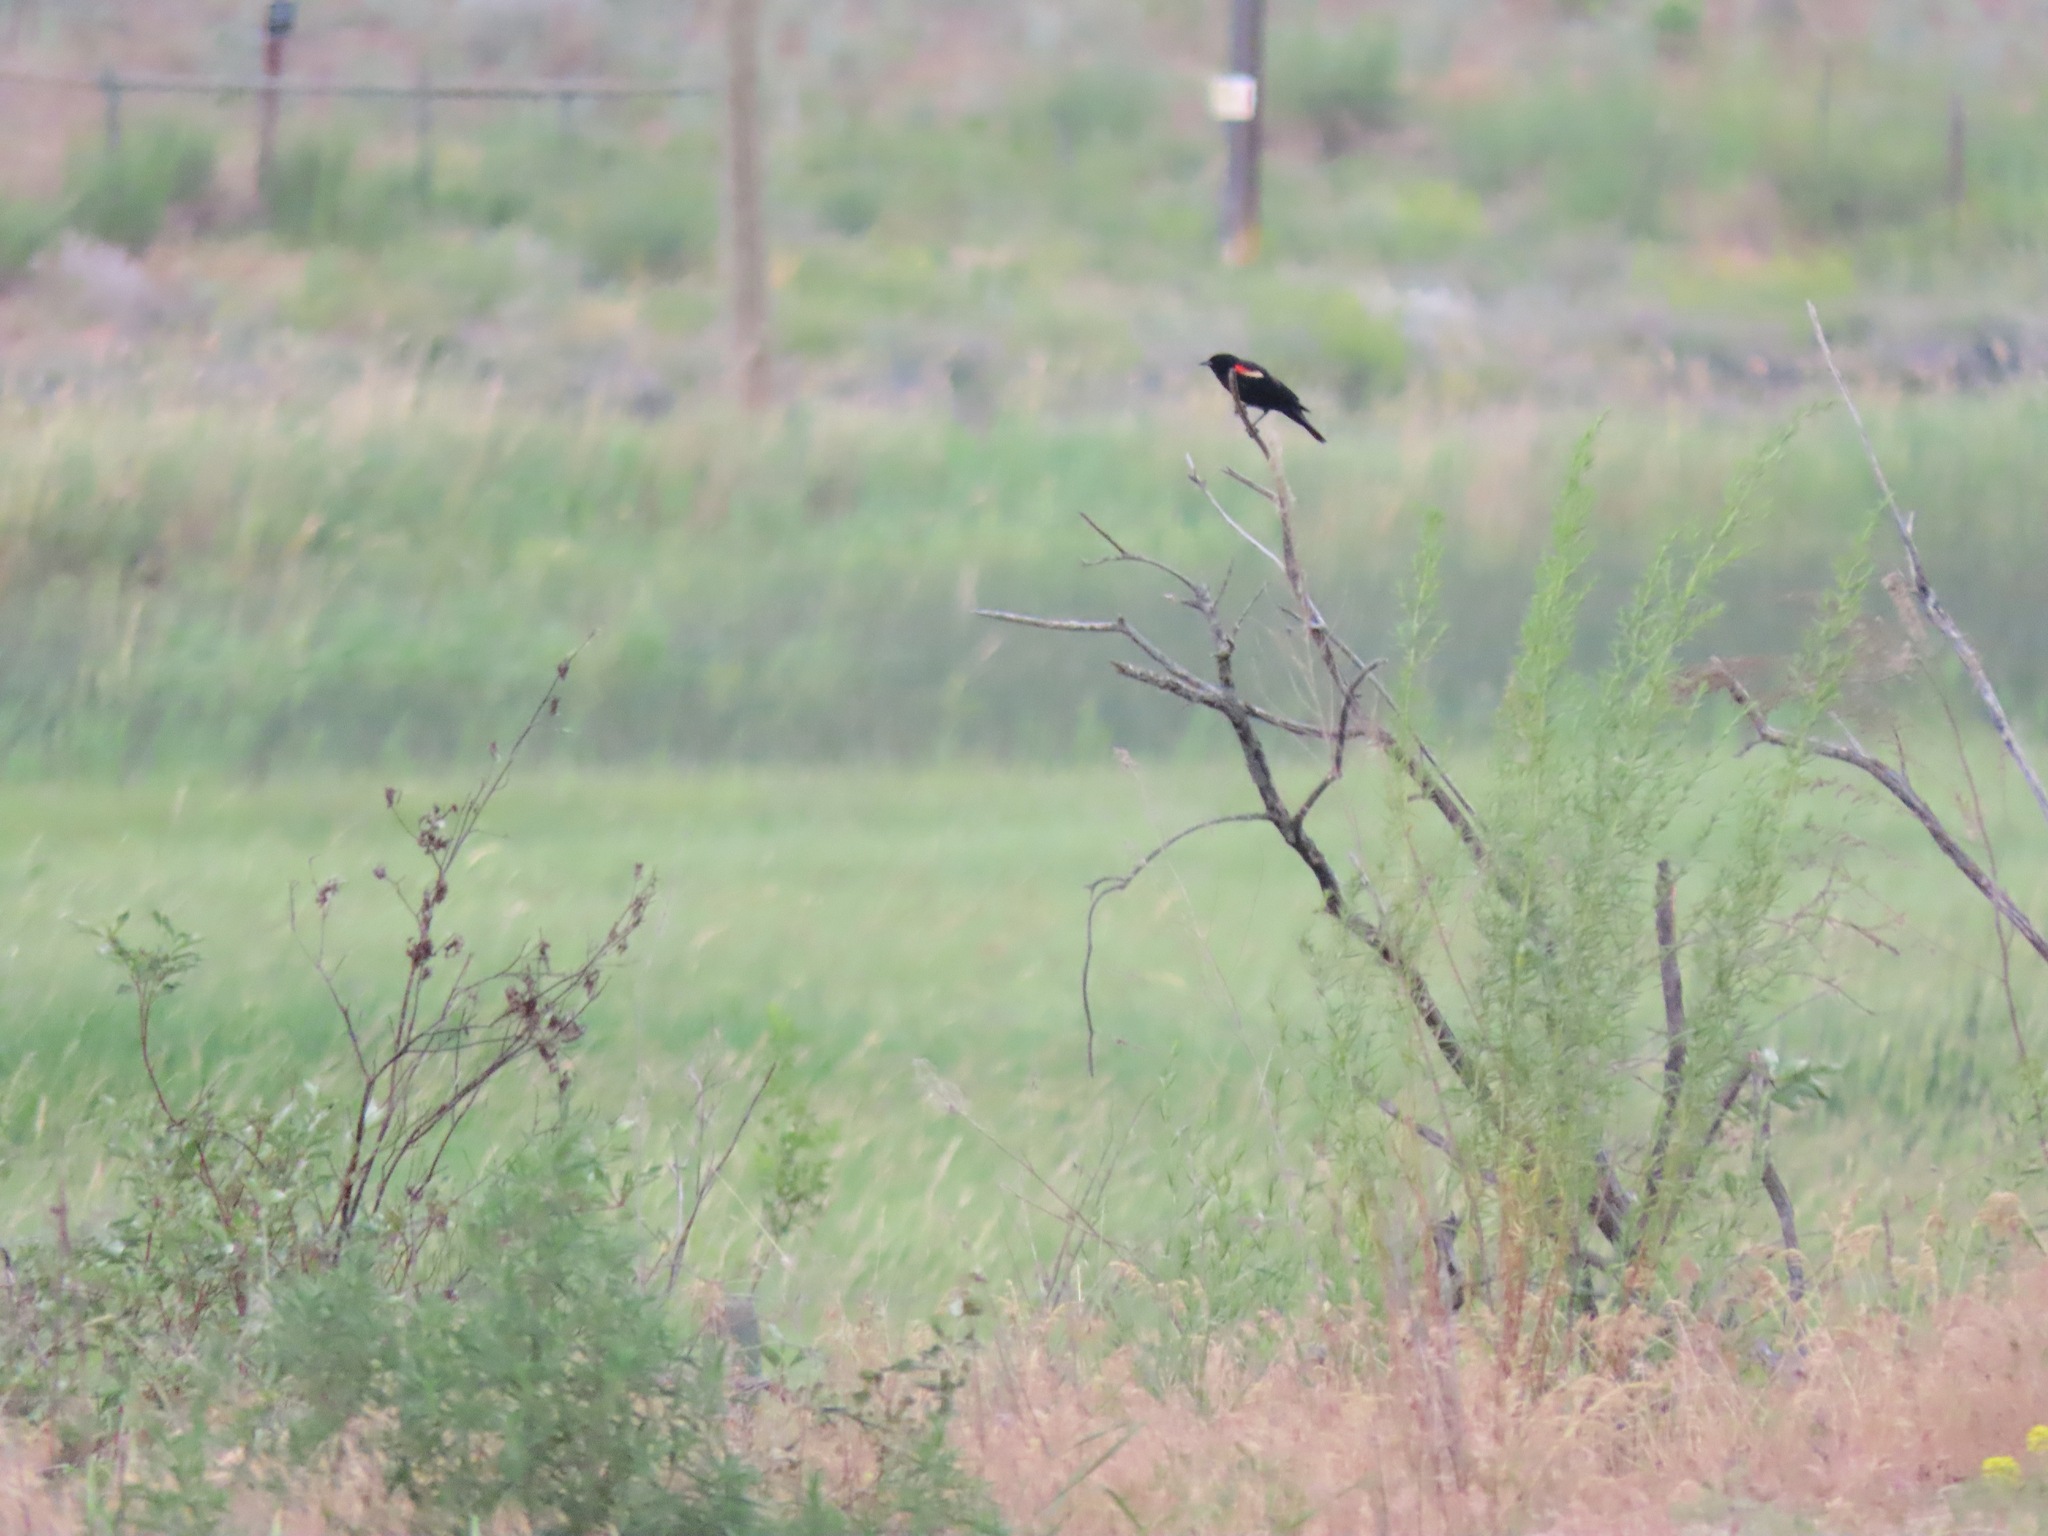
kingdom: Animalia
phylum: Chordata
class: Aves
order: Passeriformes
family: Icteridae
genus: Agelaius
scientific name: Agelaius phoeniceus
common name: Red-winged blackbird
